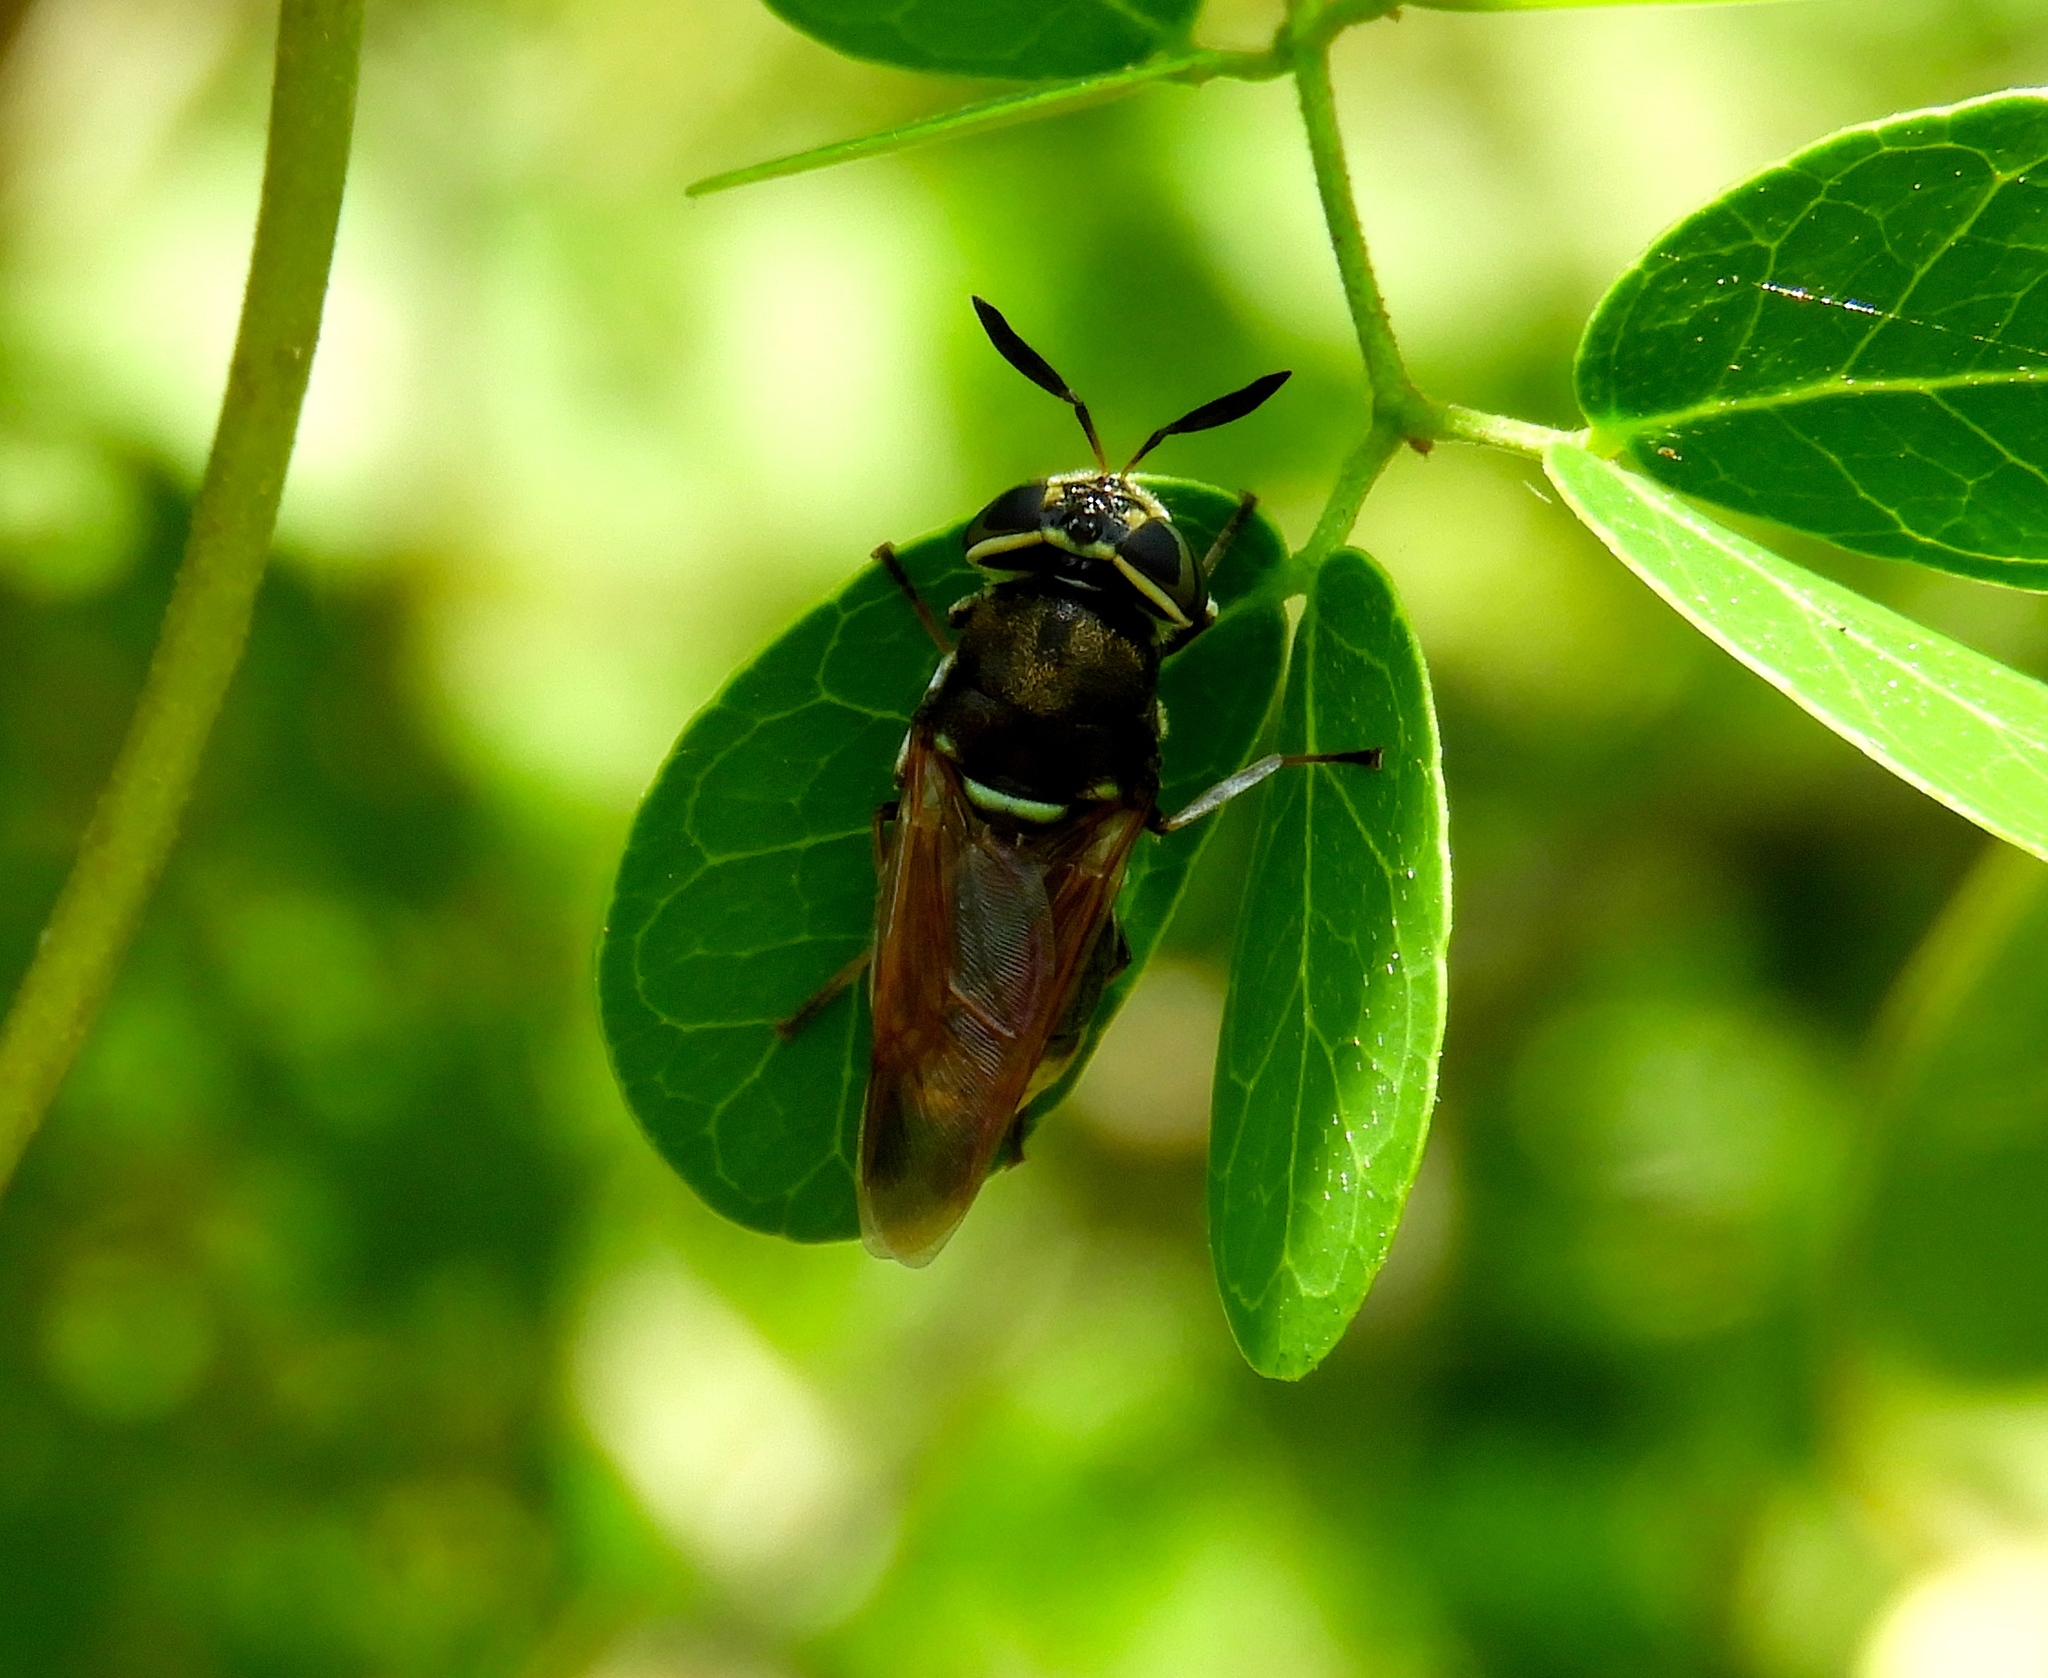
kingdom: Animalia
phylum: Arthropoda
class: Insecta
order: Diptera
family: Stratiomyidae
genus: Hoplitimyia
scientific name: Hoplitimyia mutabilis
